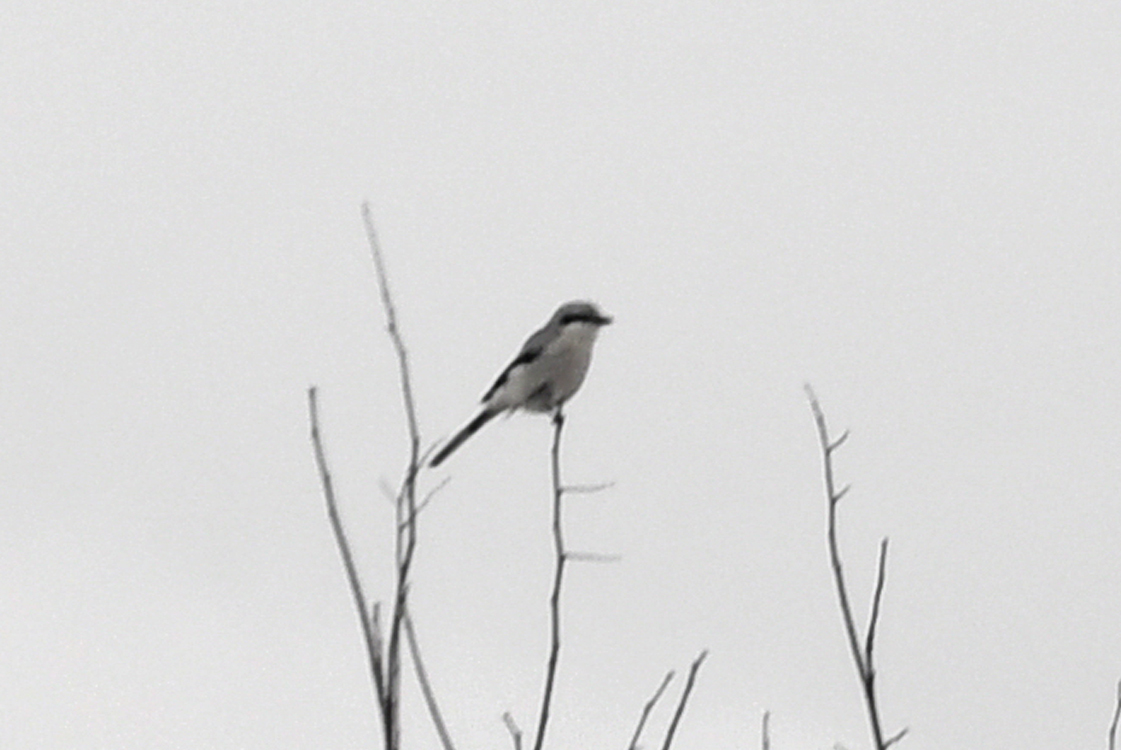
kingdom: Animalia
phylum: Chordata
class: Aves
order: Passeriformes
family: Laniidae
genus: Lanius
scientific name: Lanius borealis
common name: Northern shrike
